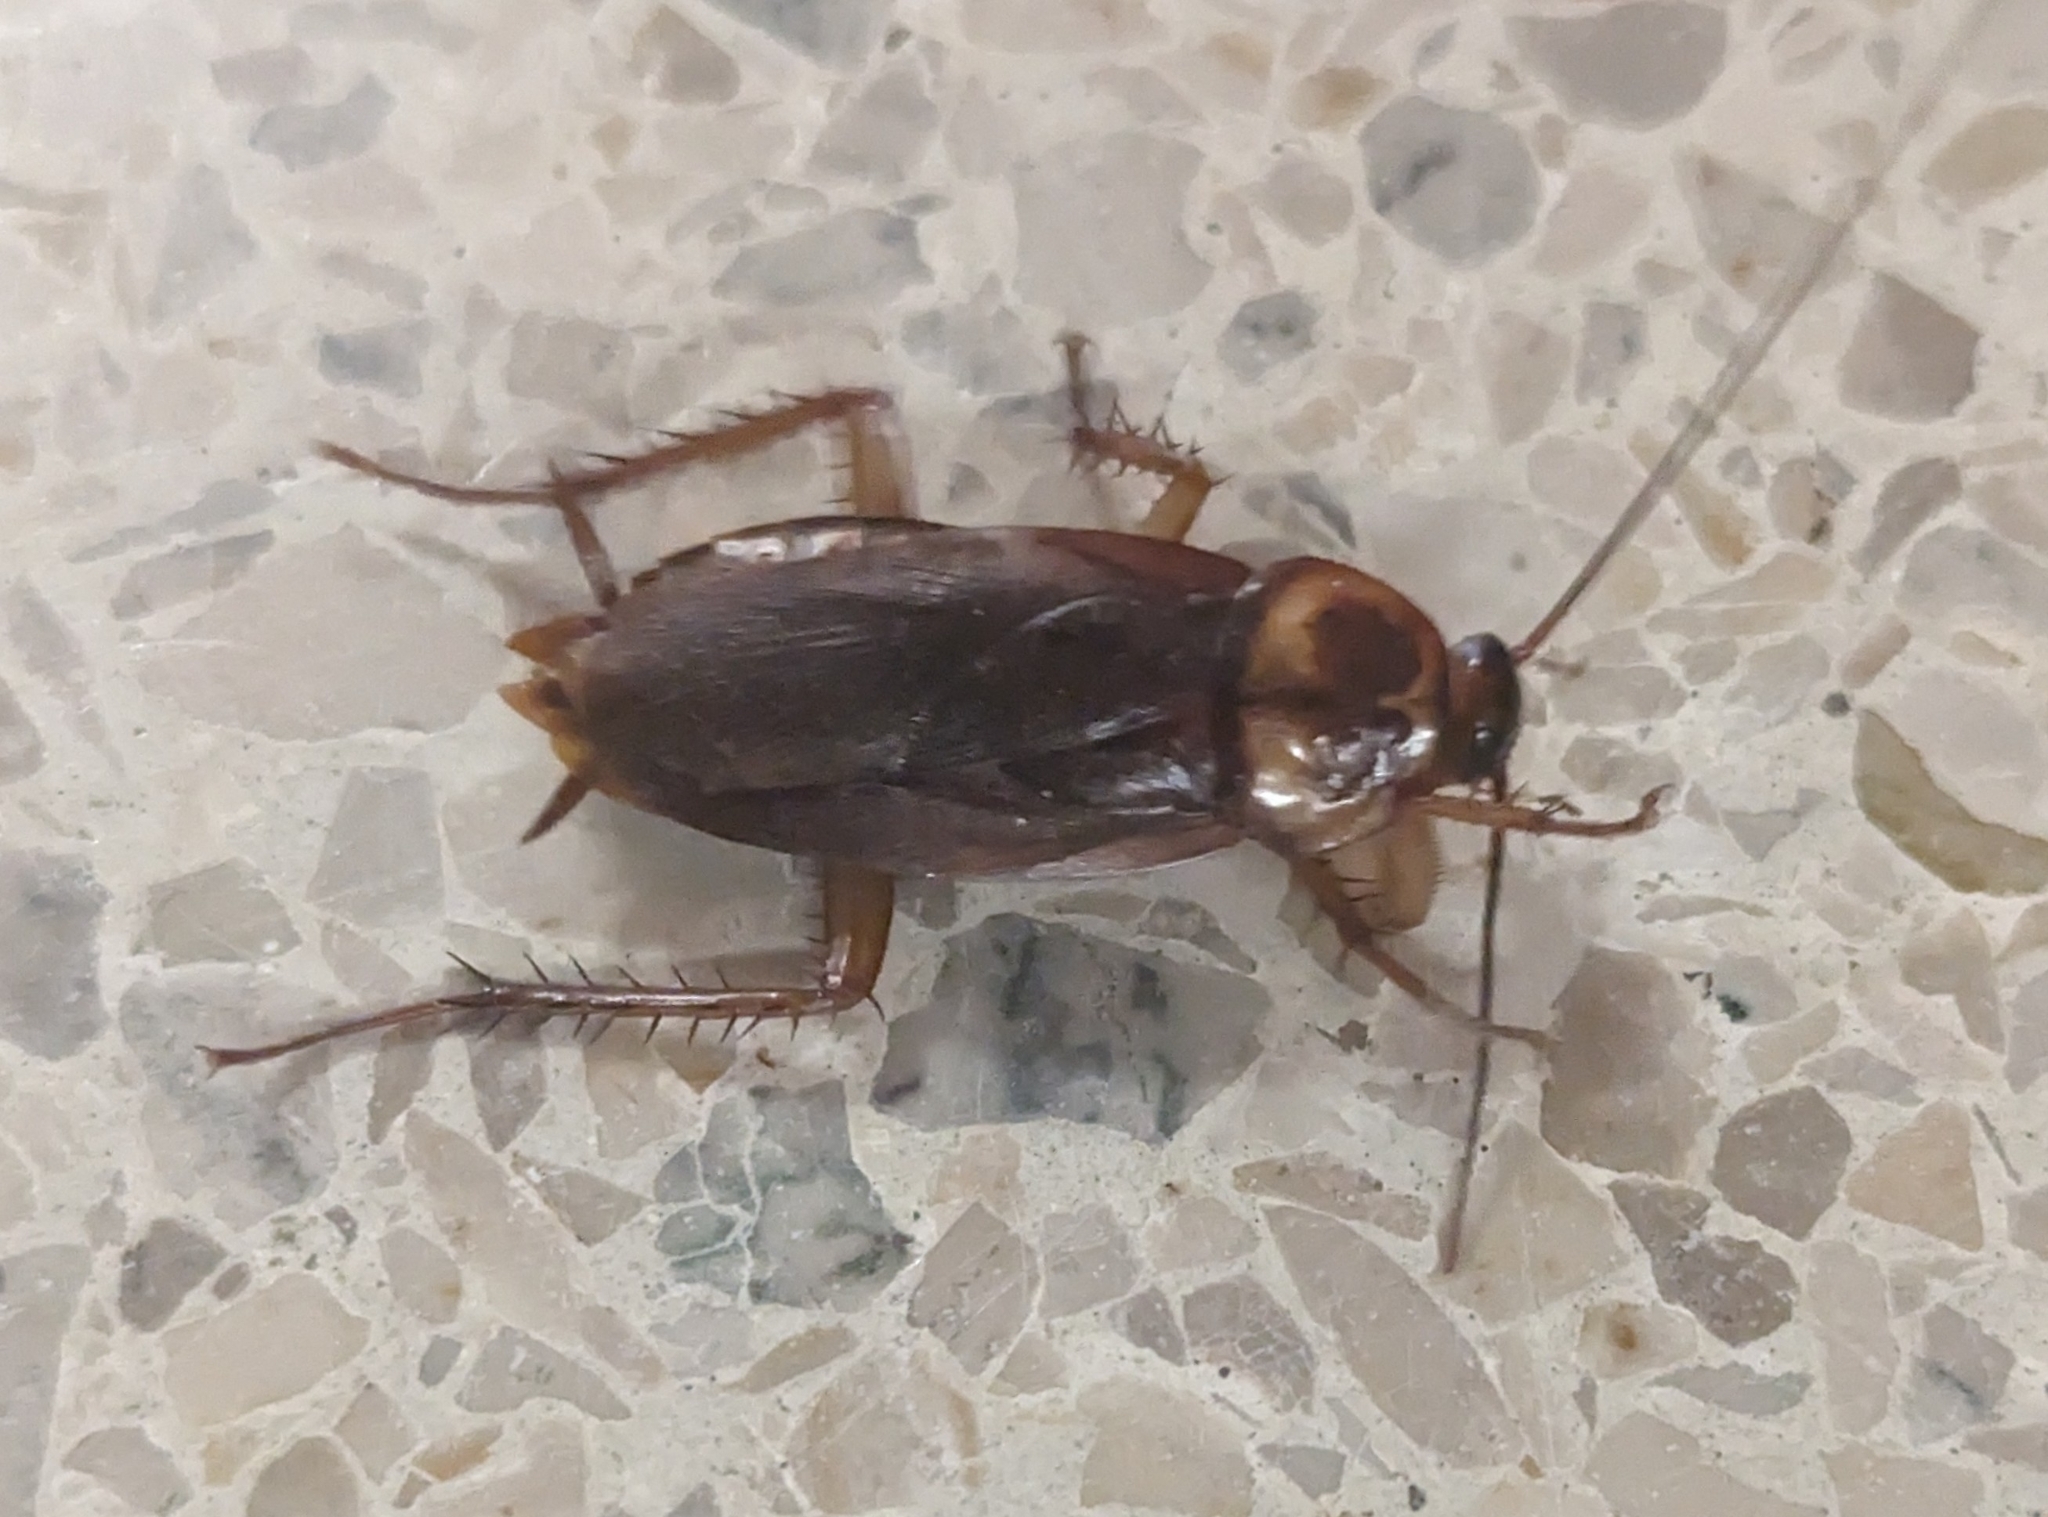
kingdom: Animalia
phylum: Arthropoda
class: Insecta
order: Blattodea
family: Blattidae
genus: Periplaneta
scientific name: Periplaneta americana
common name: American cockroach
